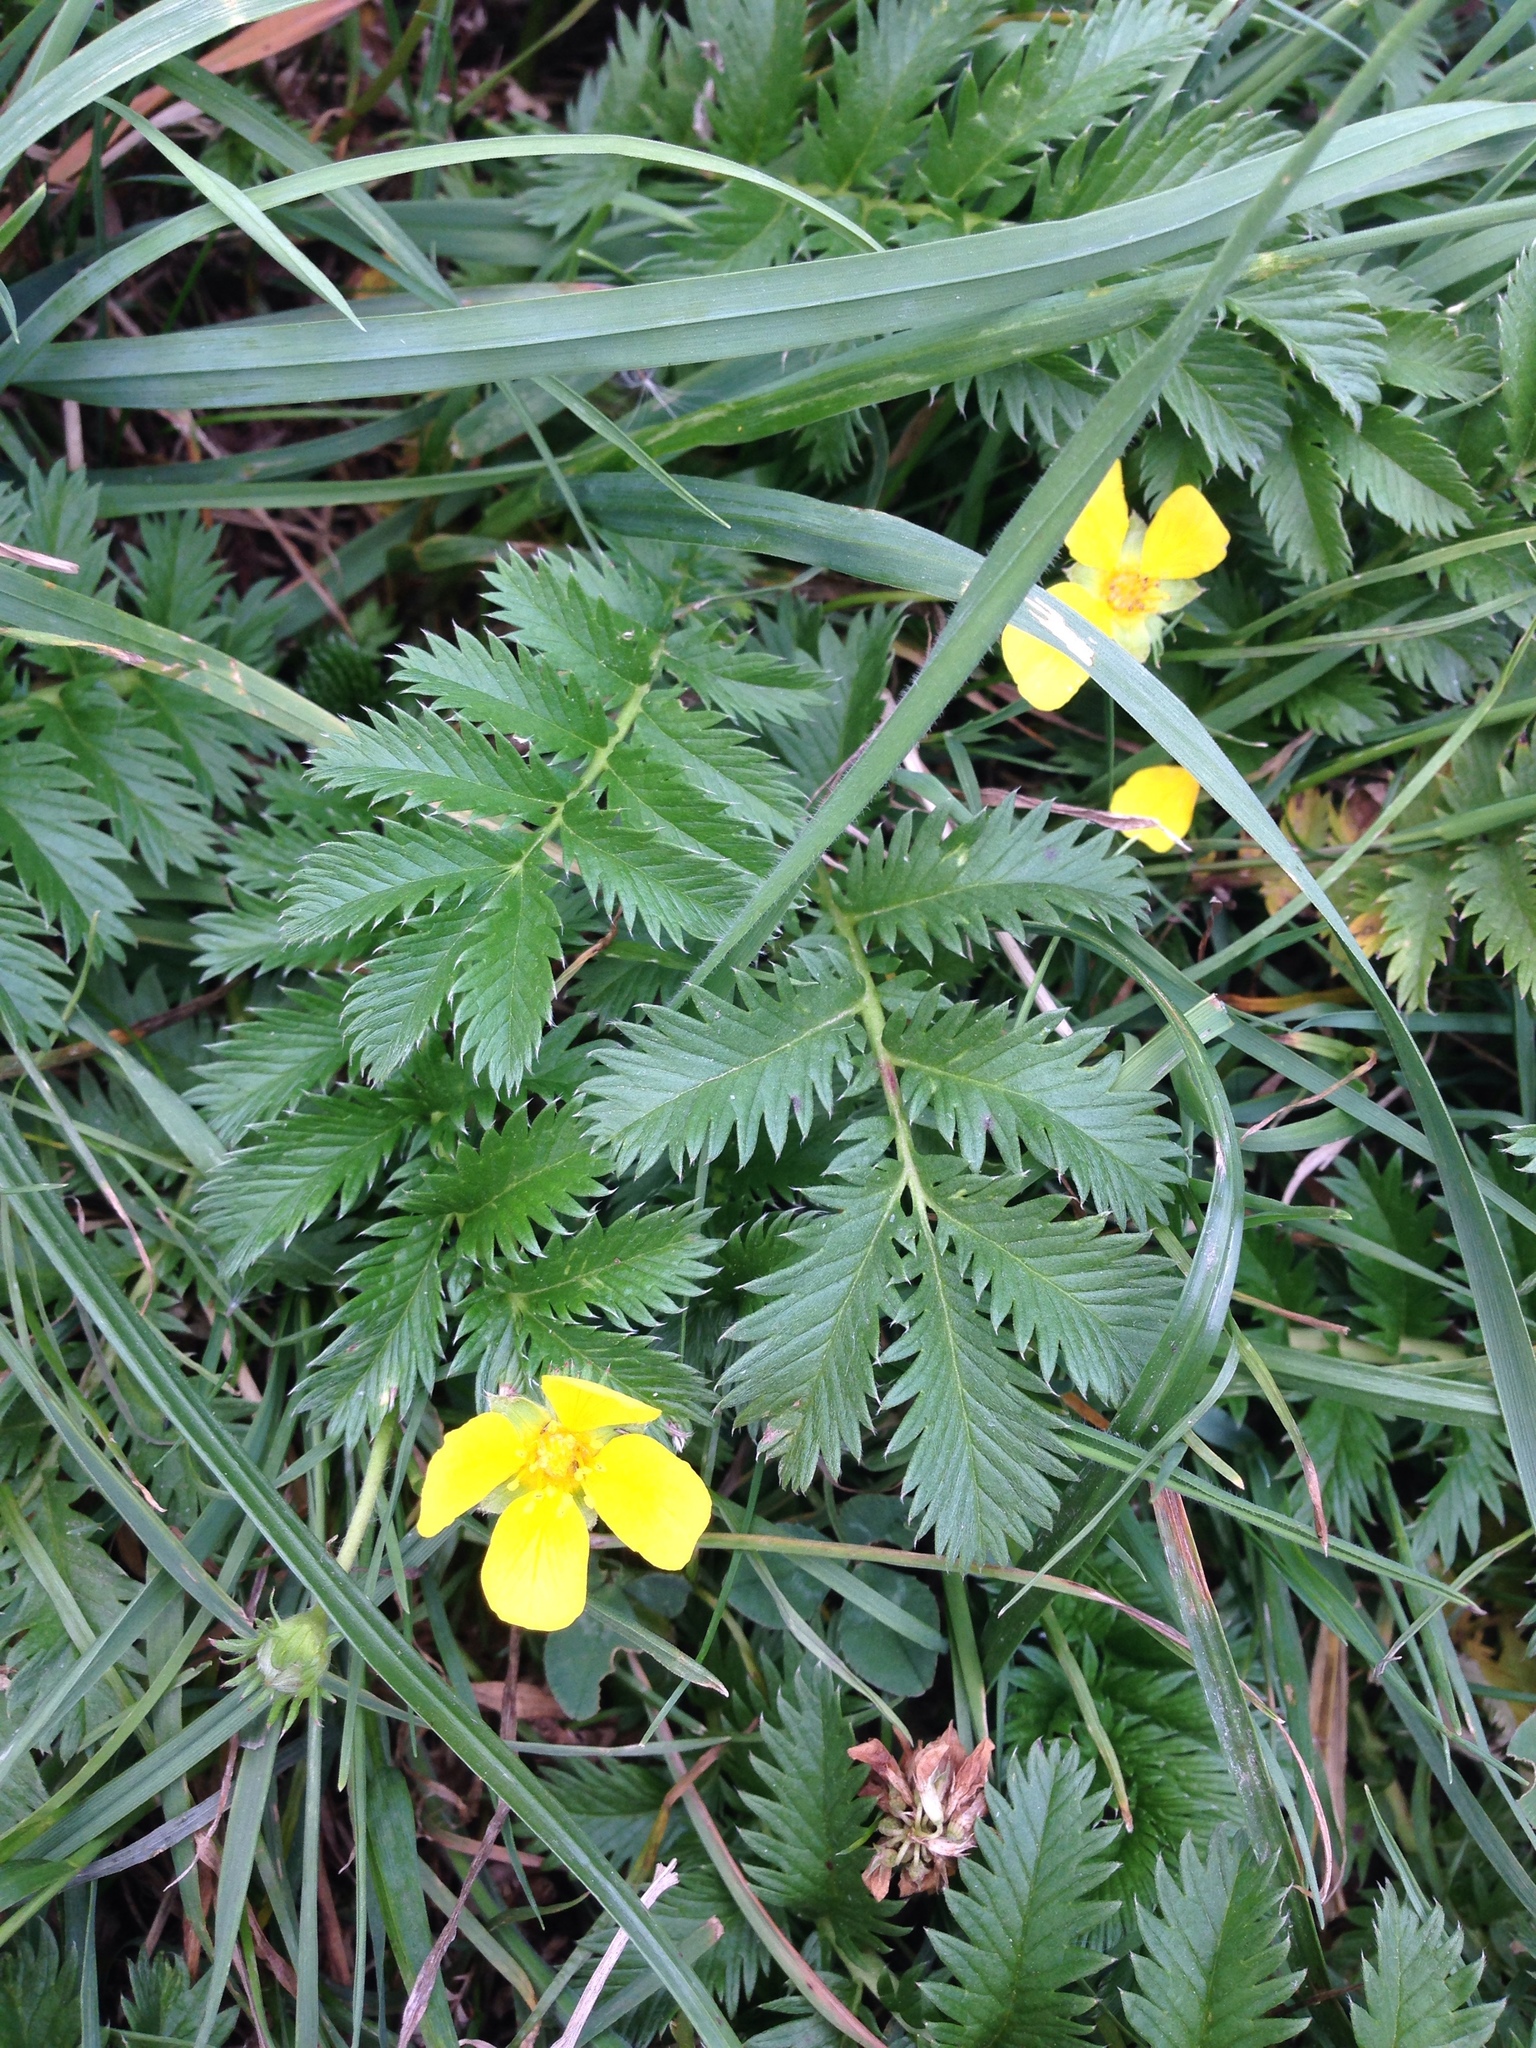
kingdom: Plantae
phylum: Tracheophyta
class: Magnoliopsida
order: Rosales
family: Rosaceae
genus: Argentina
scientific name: Argentina anserina
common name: Common silverweed
